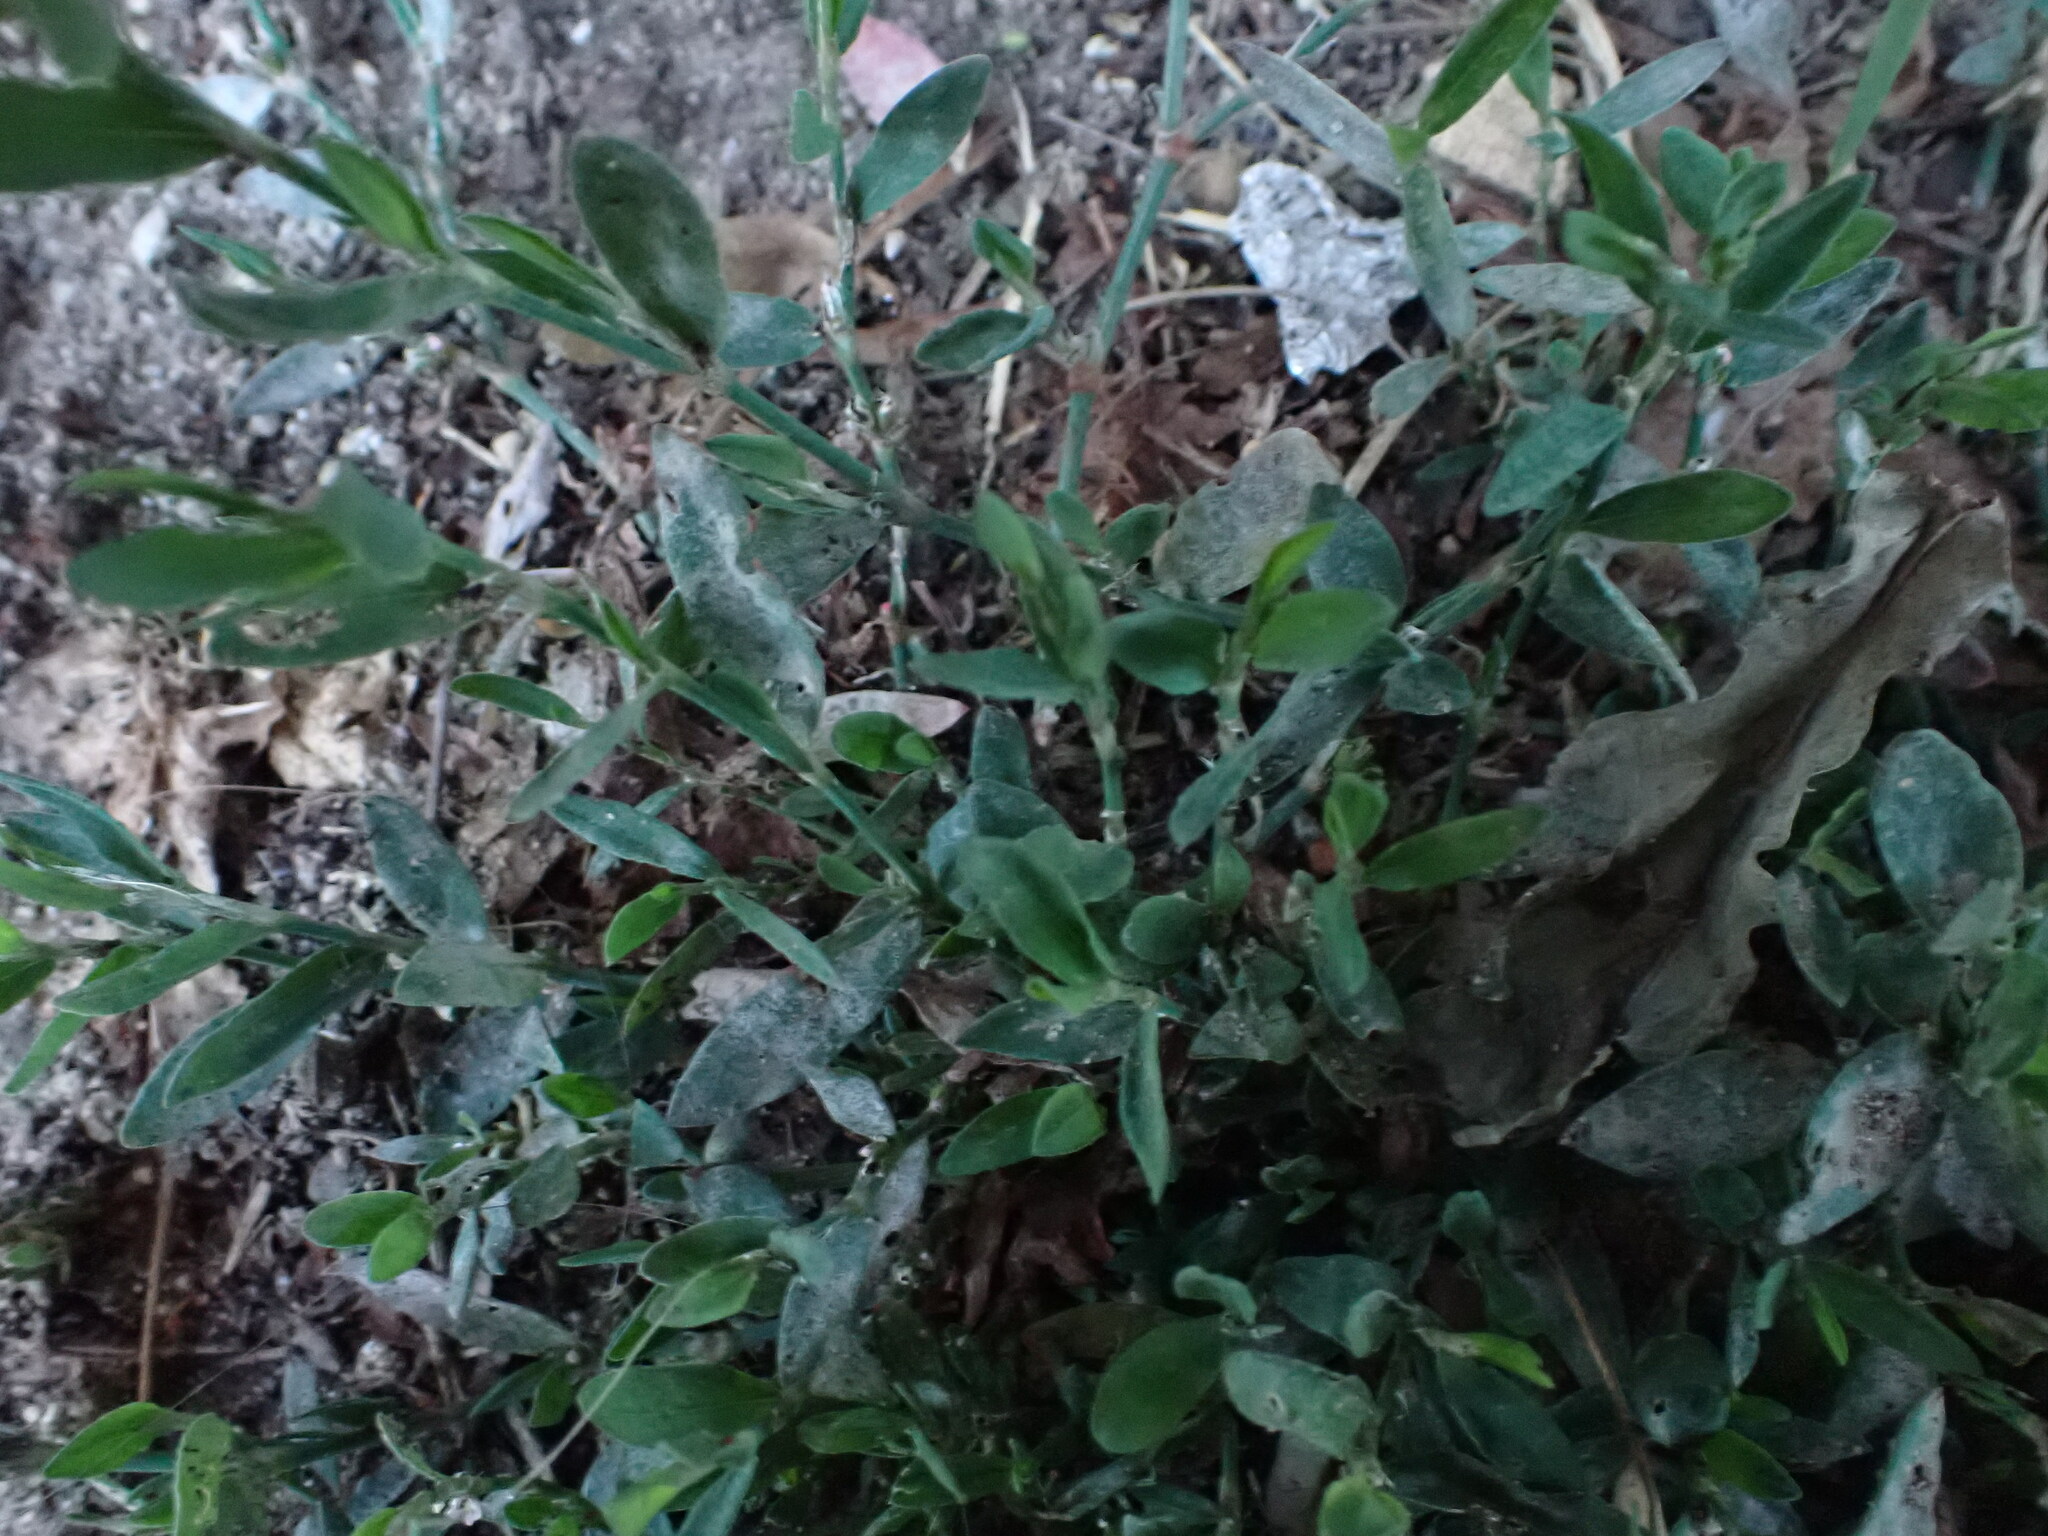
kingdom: Fungi
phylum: Ascomycota
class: Leotiomycetes
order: Helotiales
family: Erysiphaceae
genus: Erysiphe
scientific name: Erysiphe polygoni
